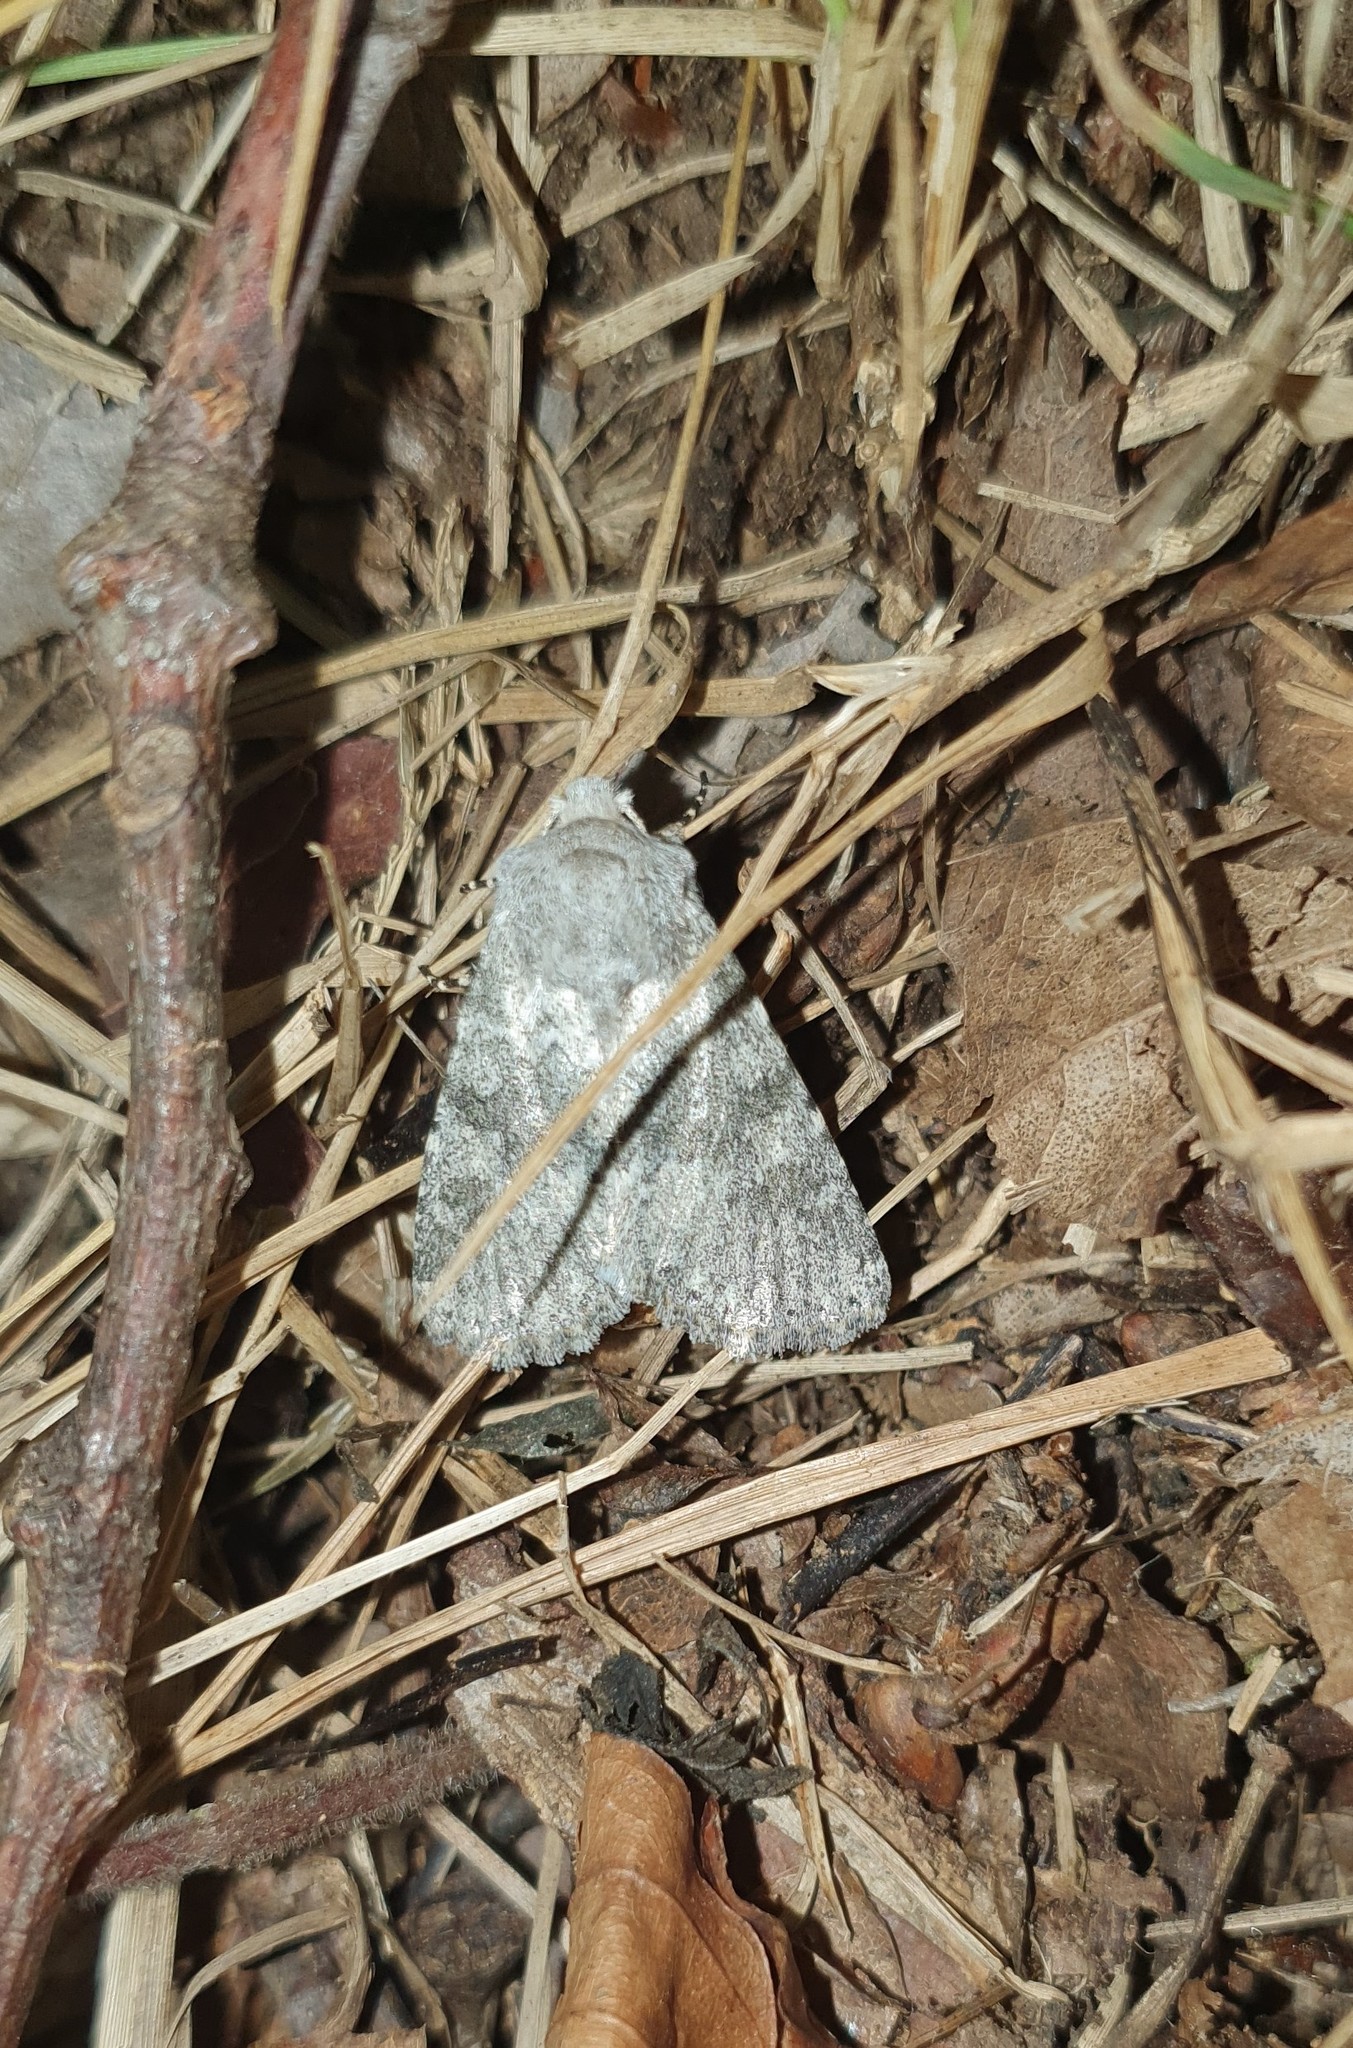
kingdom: Animalia
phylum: Arthropoda
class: Insecta
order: Lepidoptera
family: Noctuidae
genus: Polymixis
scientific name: Polymixis dubia
